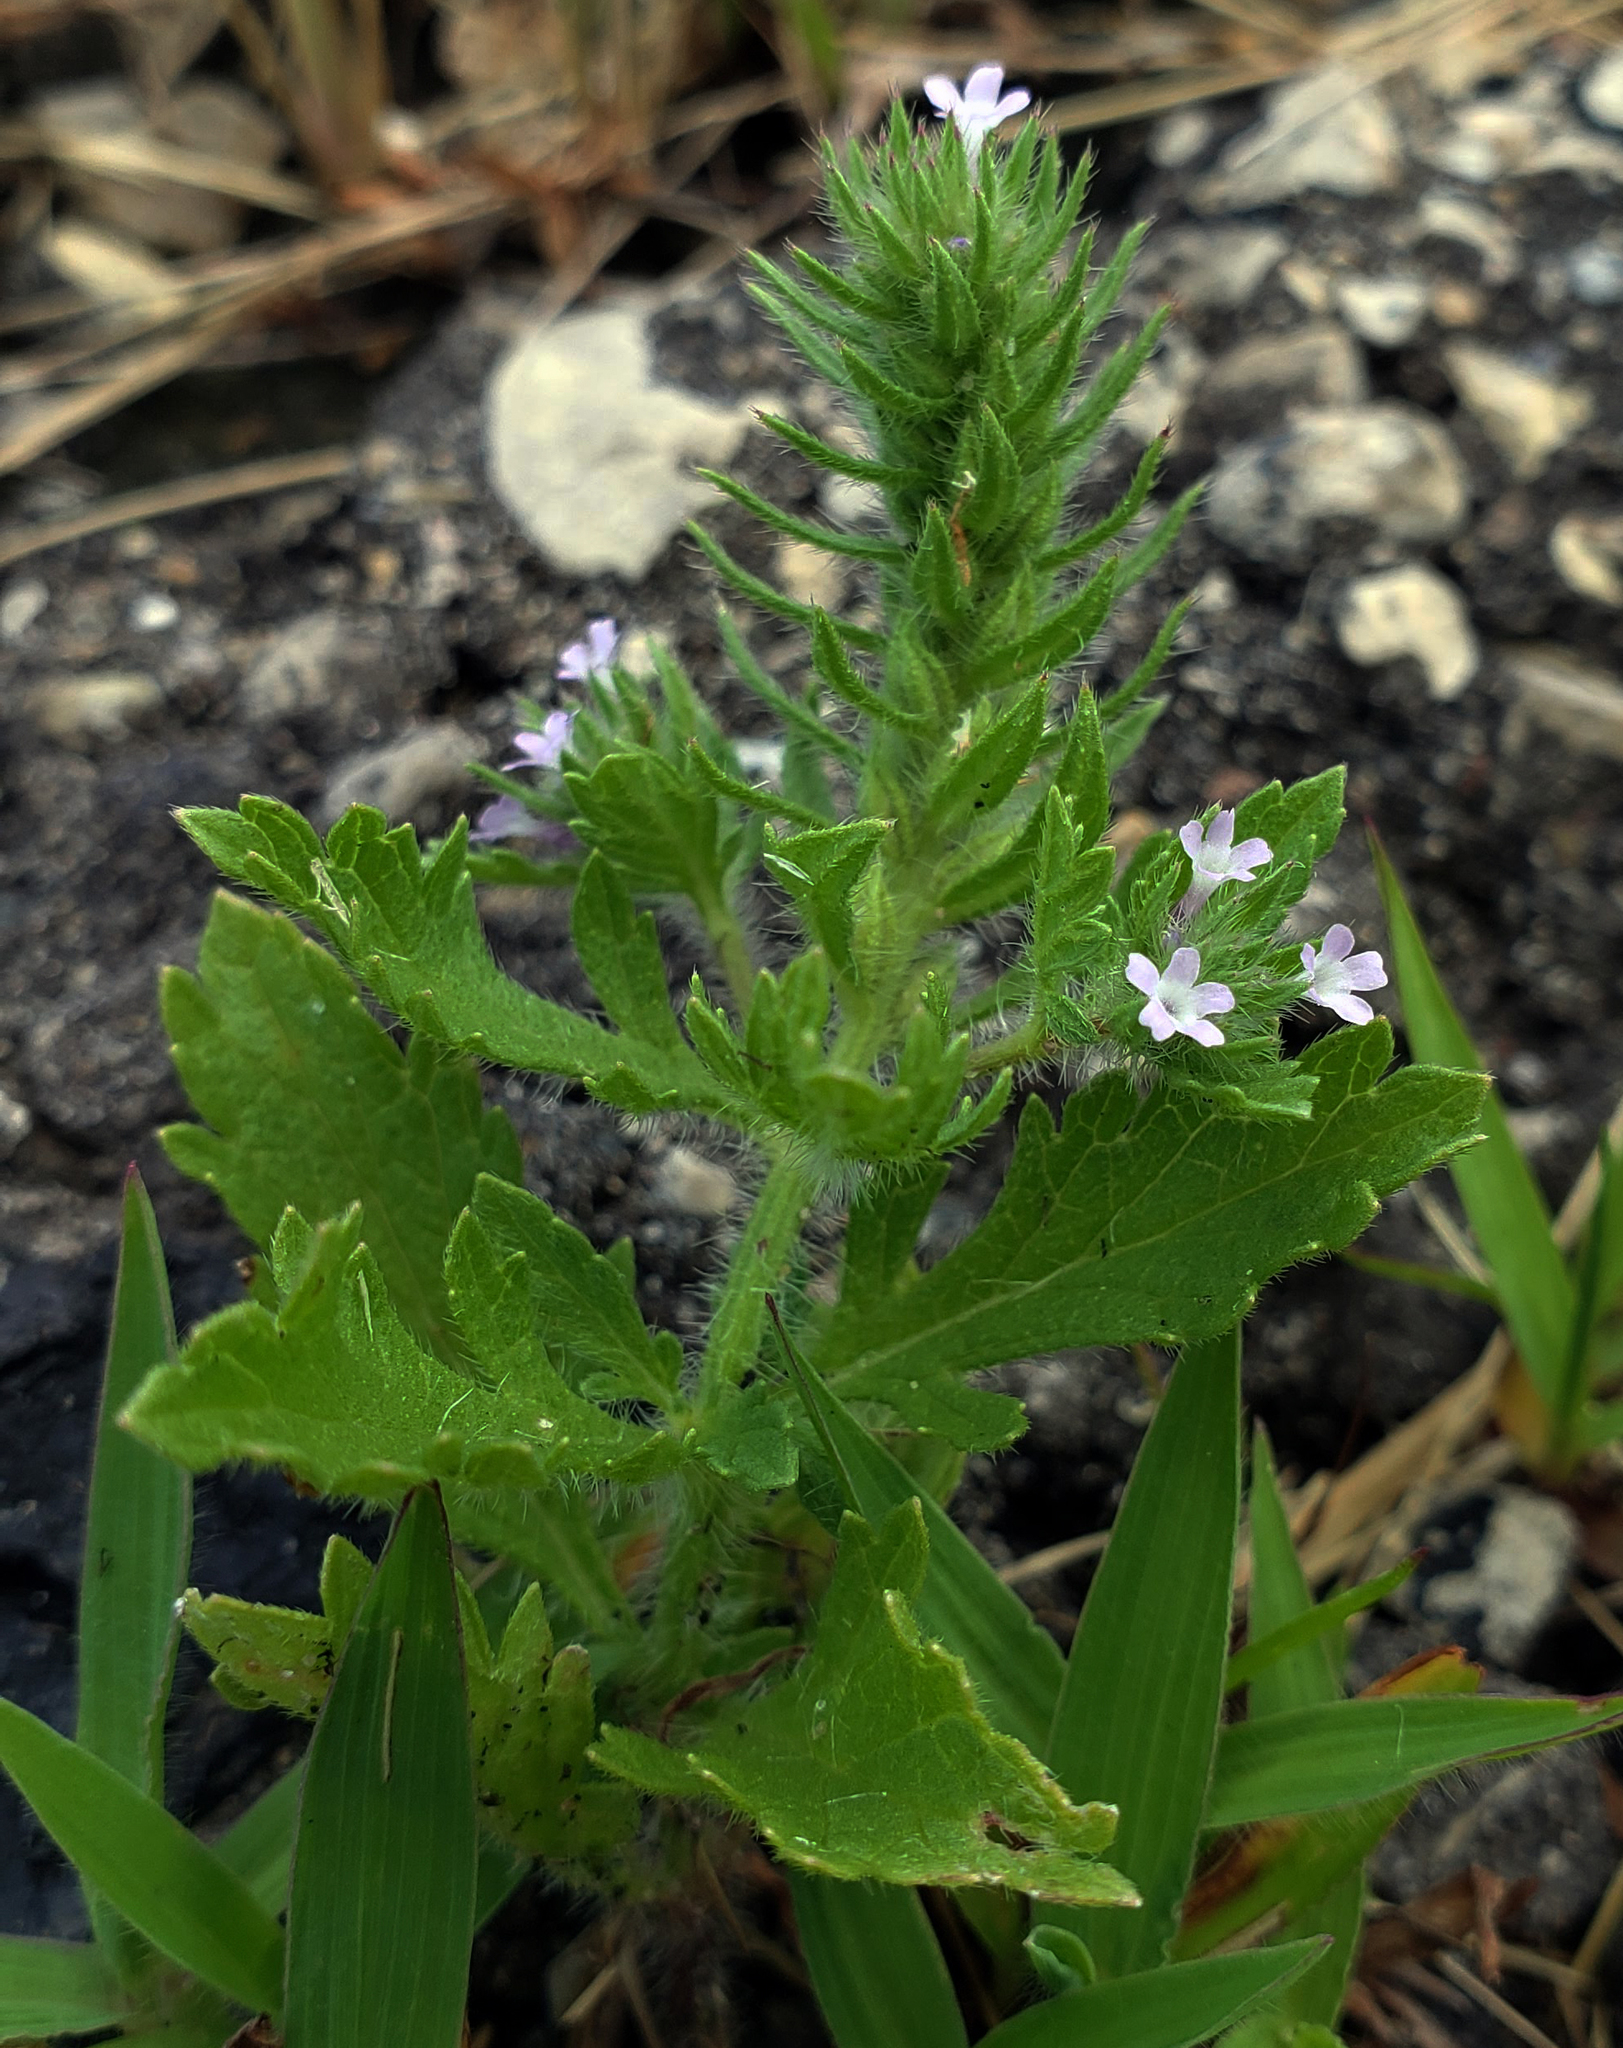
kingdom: Plantae
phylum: Tracheophyta
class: Magnoliopsida
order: Lamiales
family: Verbenaceae
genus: Verbena
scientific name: Verbena bracteata
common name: Bracted vervain
